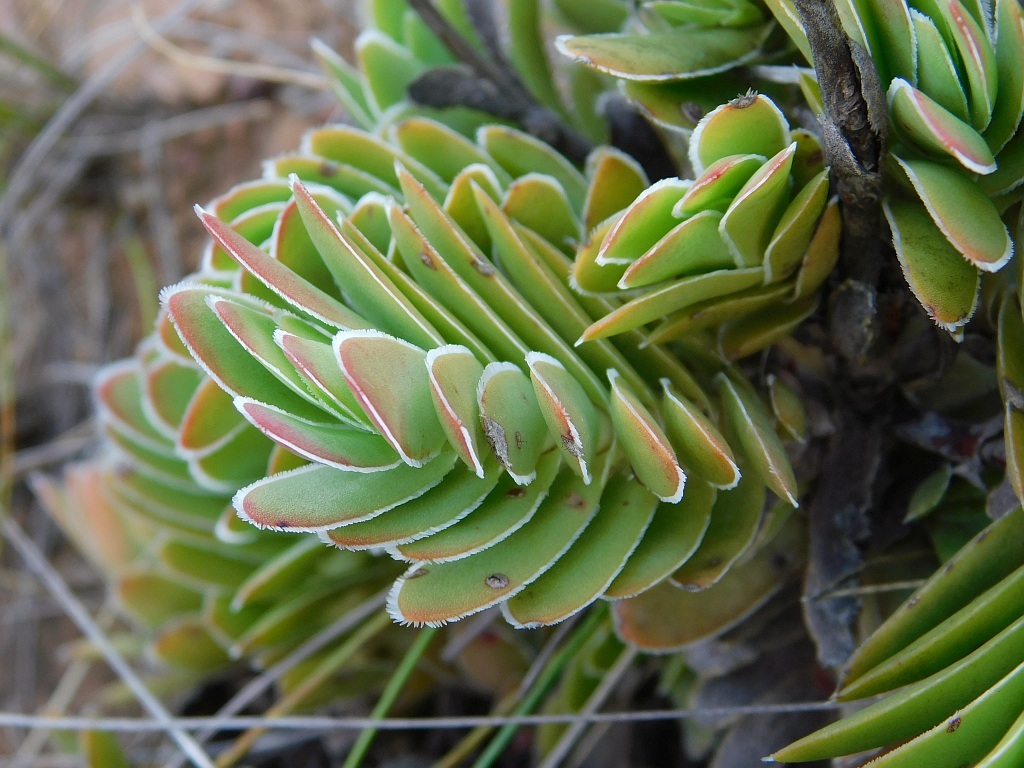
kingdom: Plantae
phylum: Tracheophyta
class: Magnoliopsida
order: Saxifragales
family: Crassulaceae
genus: Crassula
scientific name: Crassula ciliata
